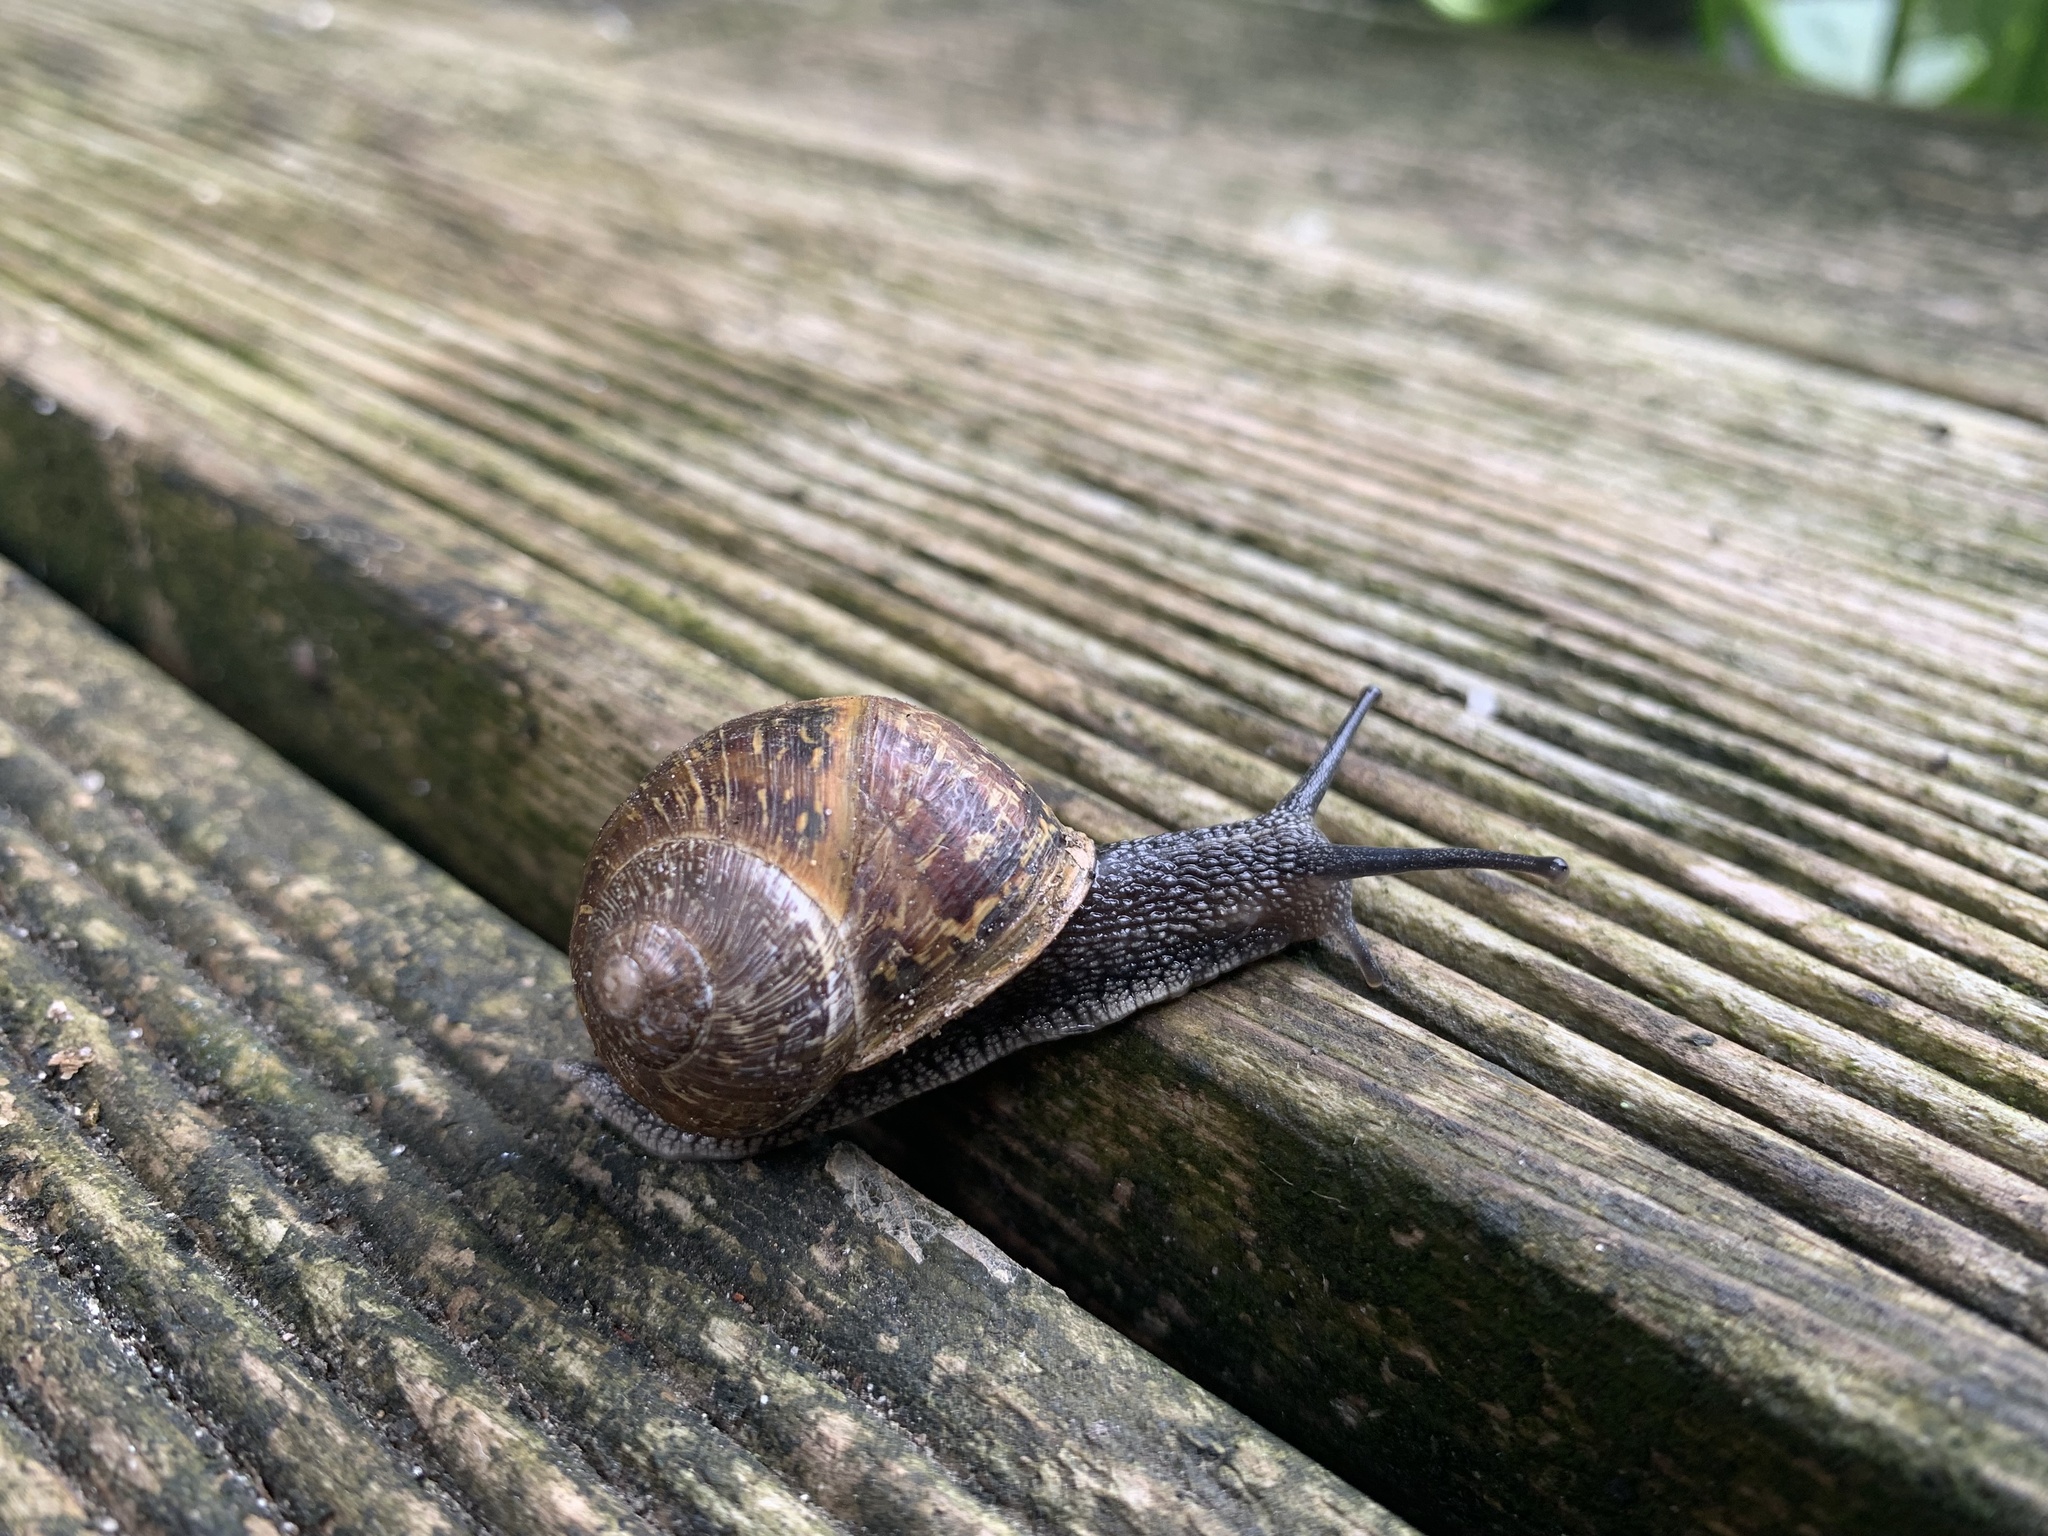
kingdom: Animalia
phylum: Mollusca
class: Gastropoda
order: Stylommatophora
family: Helicidae
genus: Cornu
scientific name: Cornu aspersum
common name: Brown garden snail
